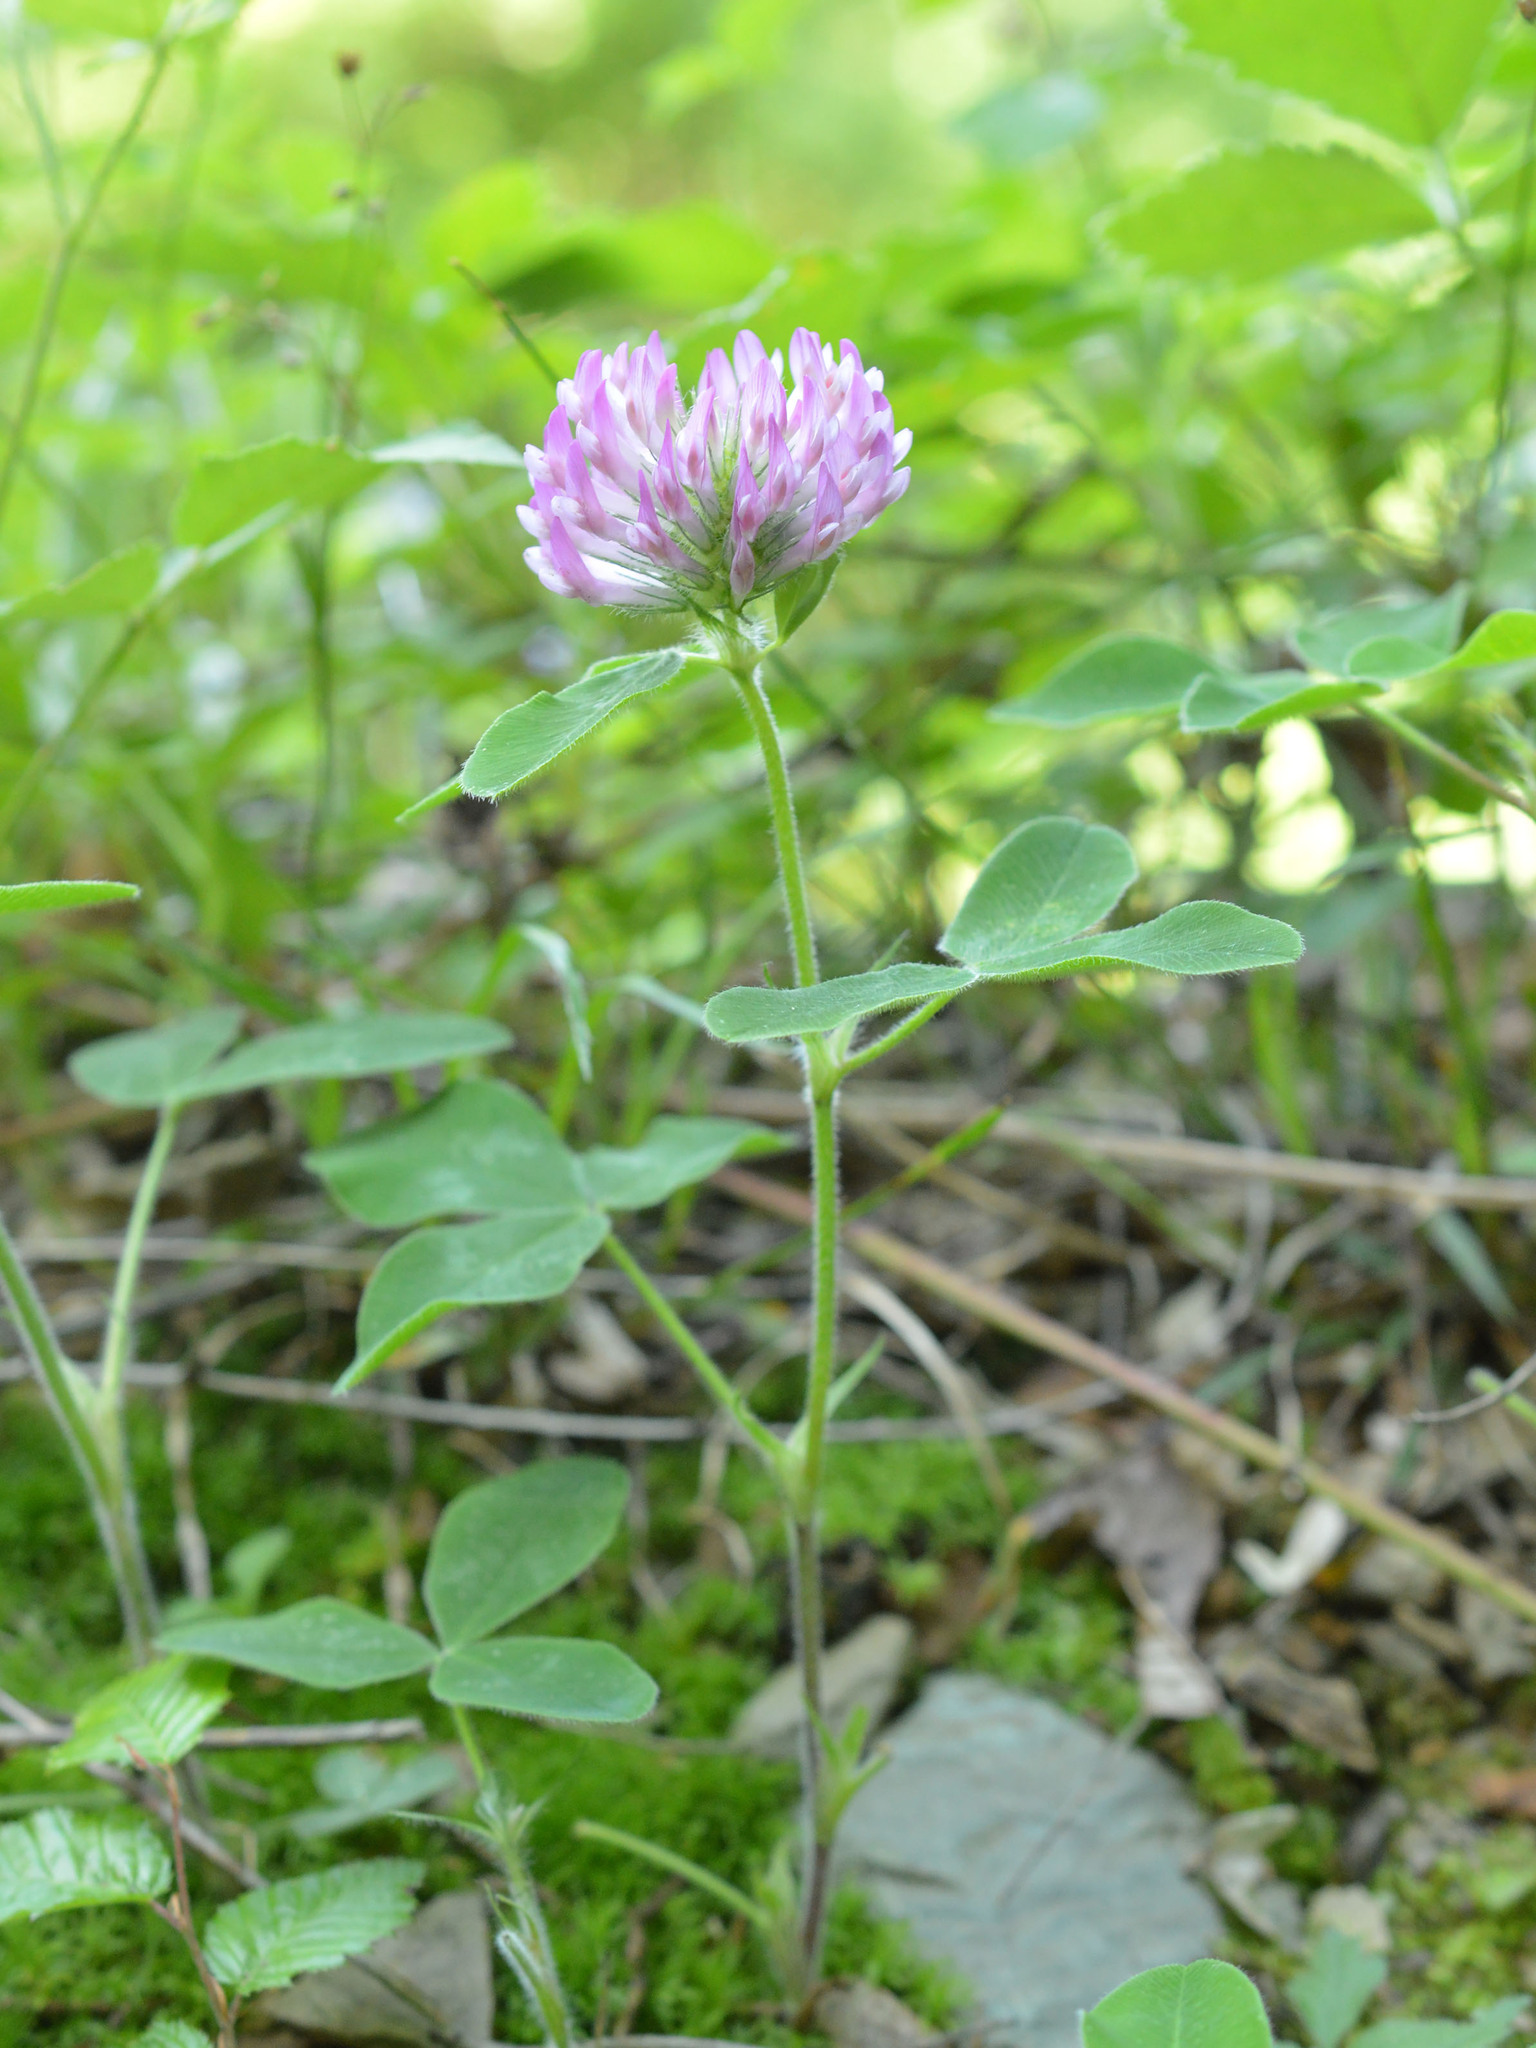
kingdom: Plantae
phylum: Tracheophyta
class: Magnoliopsida
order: Fabales
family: Fabaceae
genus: Trifolium
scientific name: Trifolium pratense
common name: Red clover
